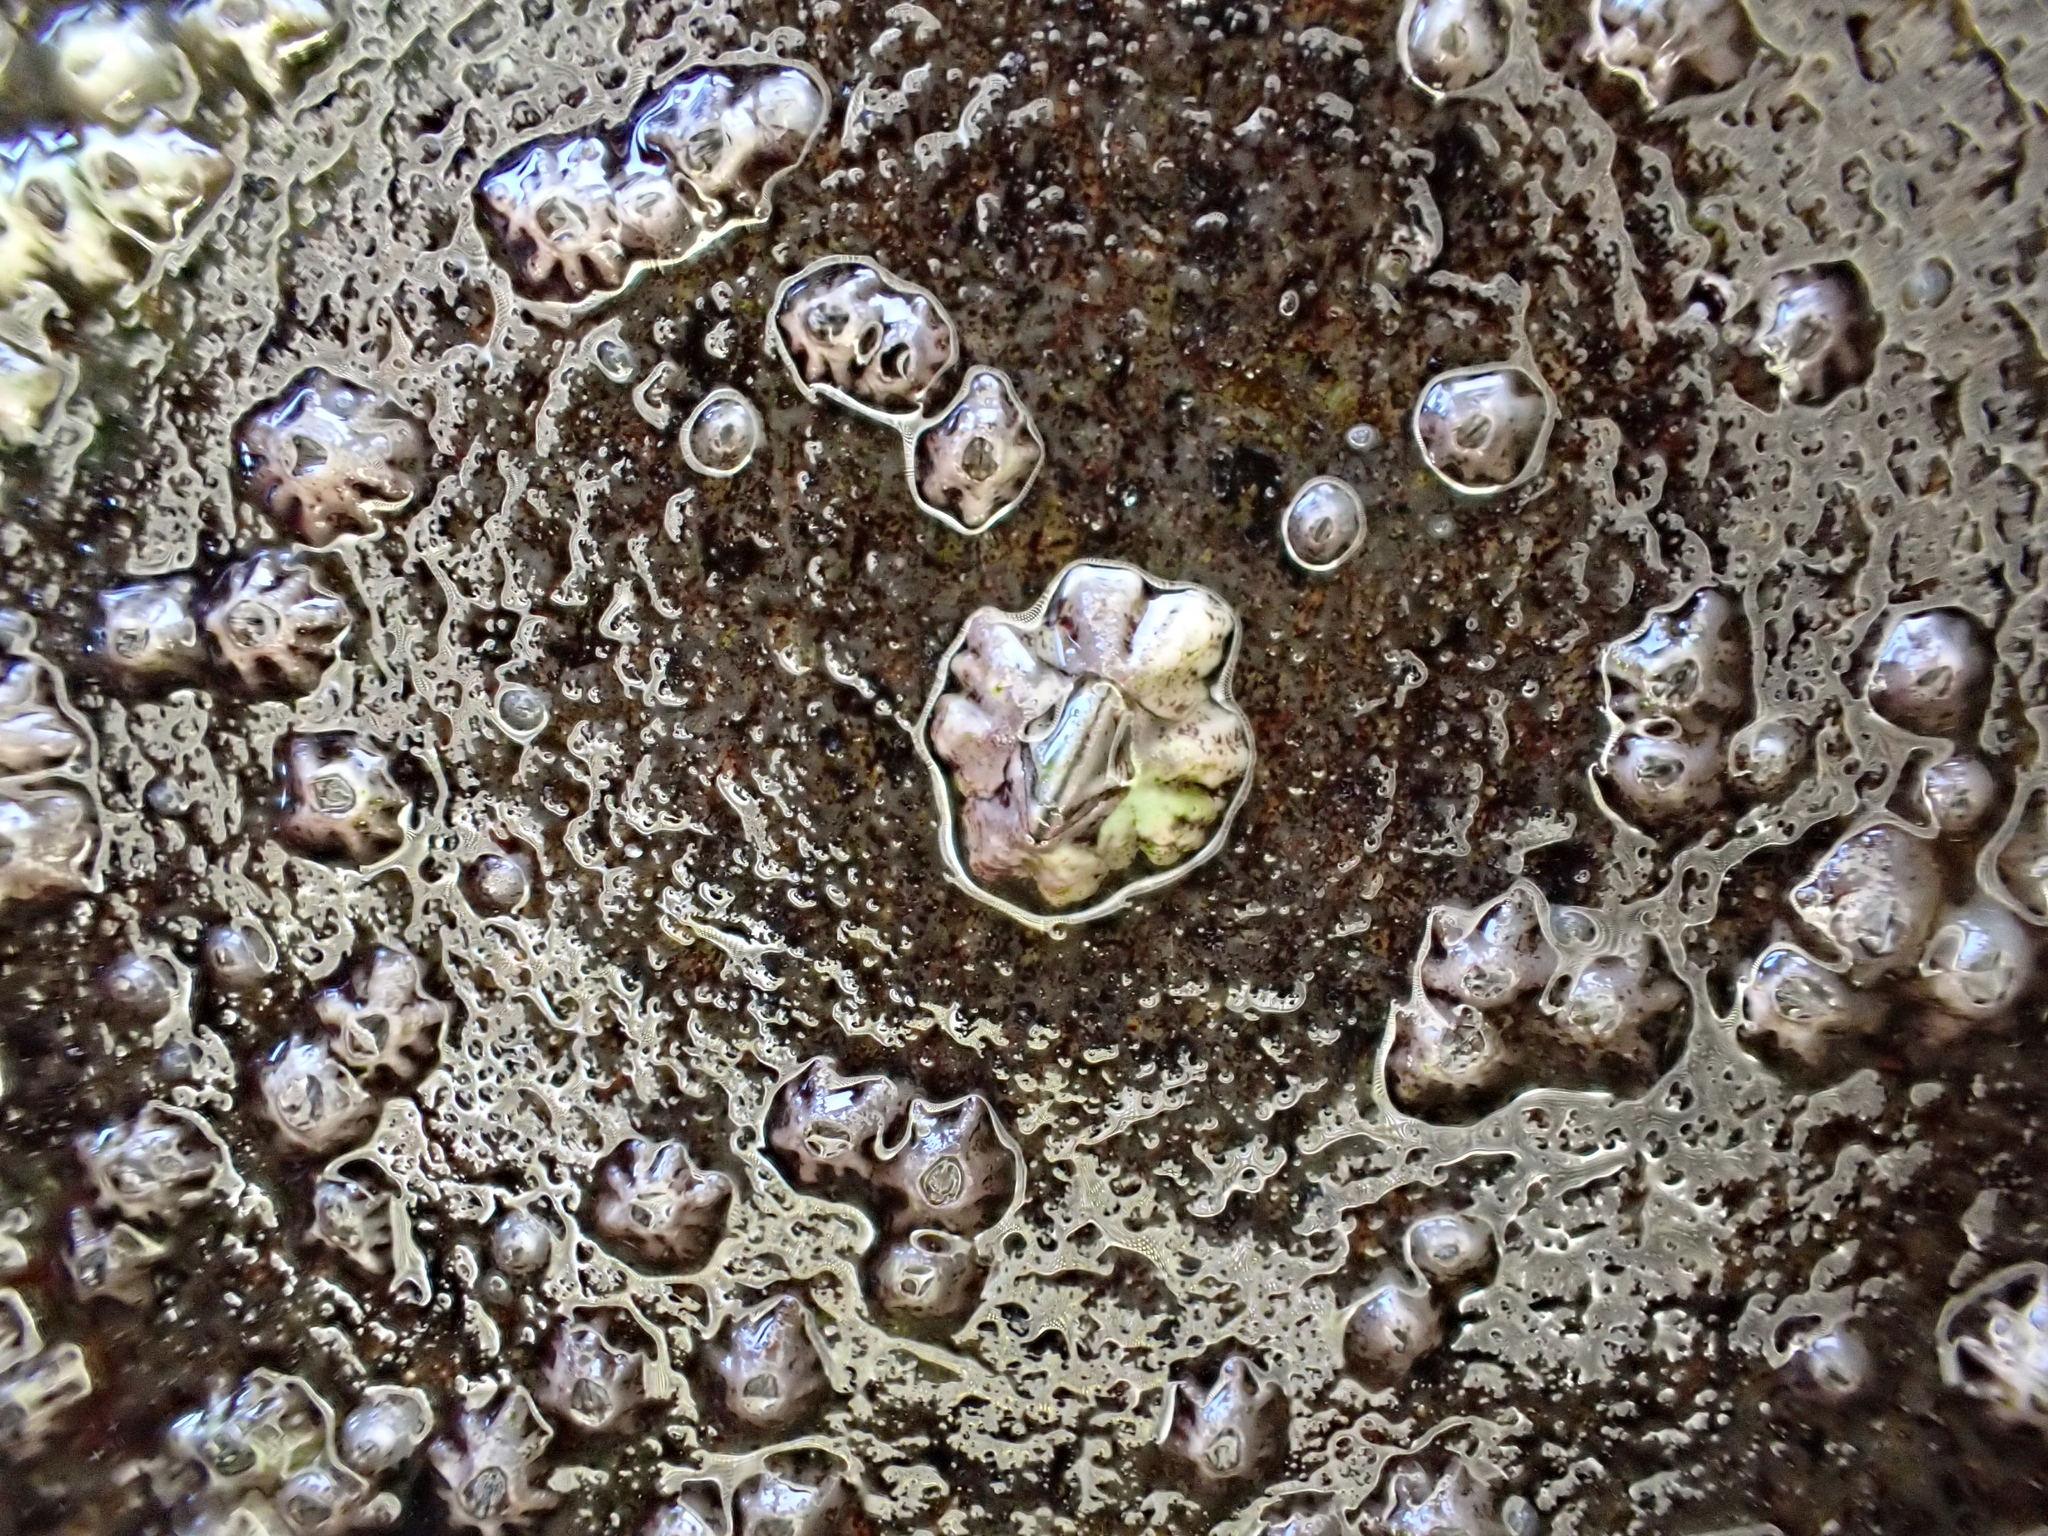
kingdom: Animalia
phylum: Arthropoda
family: Elminiidae
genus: Austrominius
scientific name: Austrominius modestus
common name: Australasian barnacle
